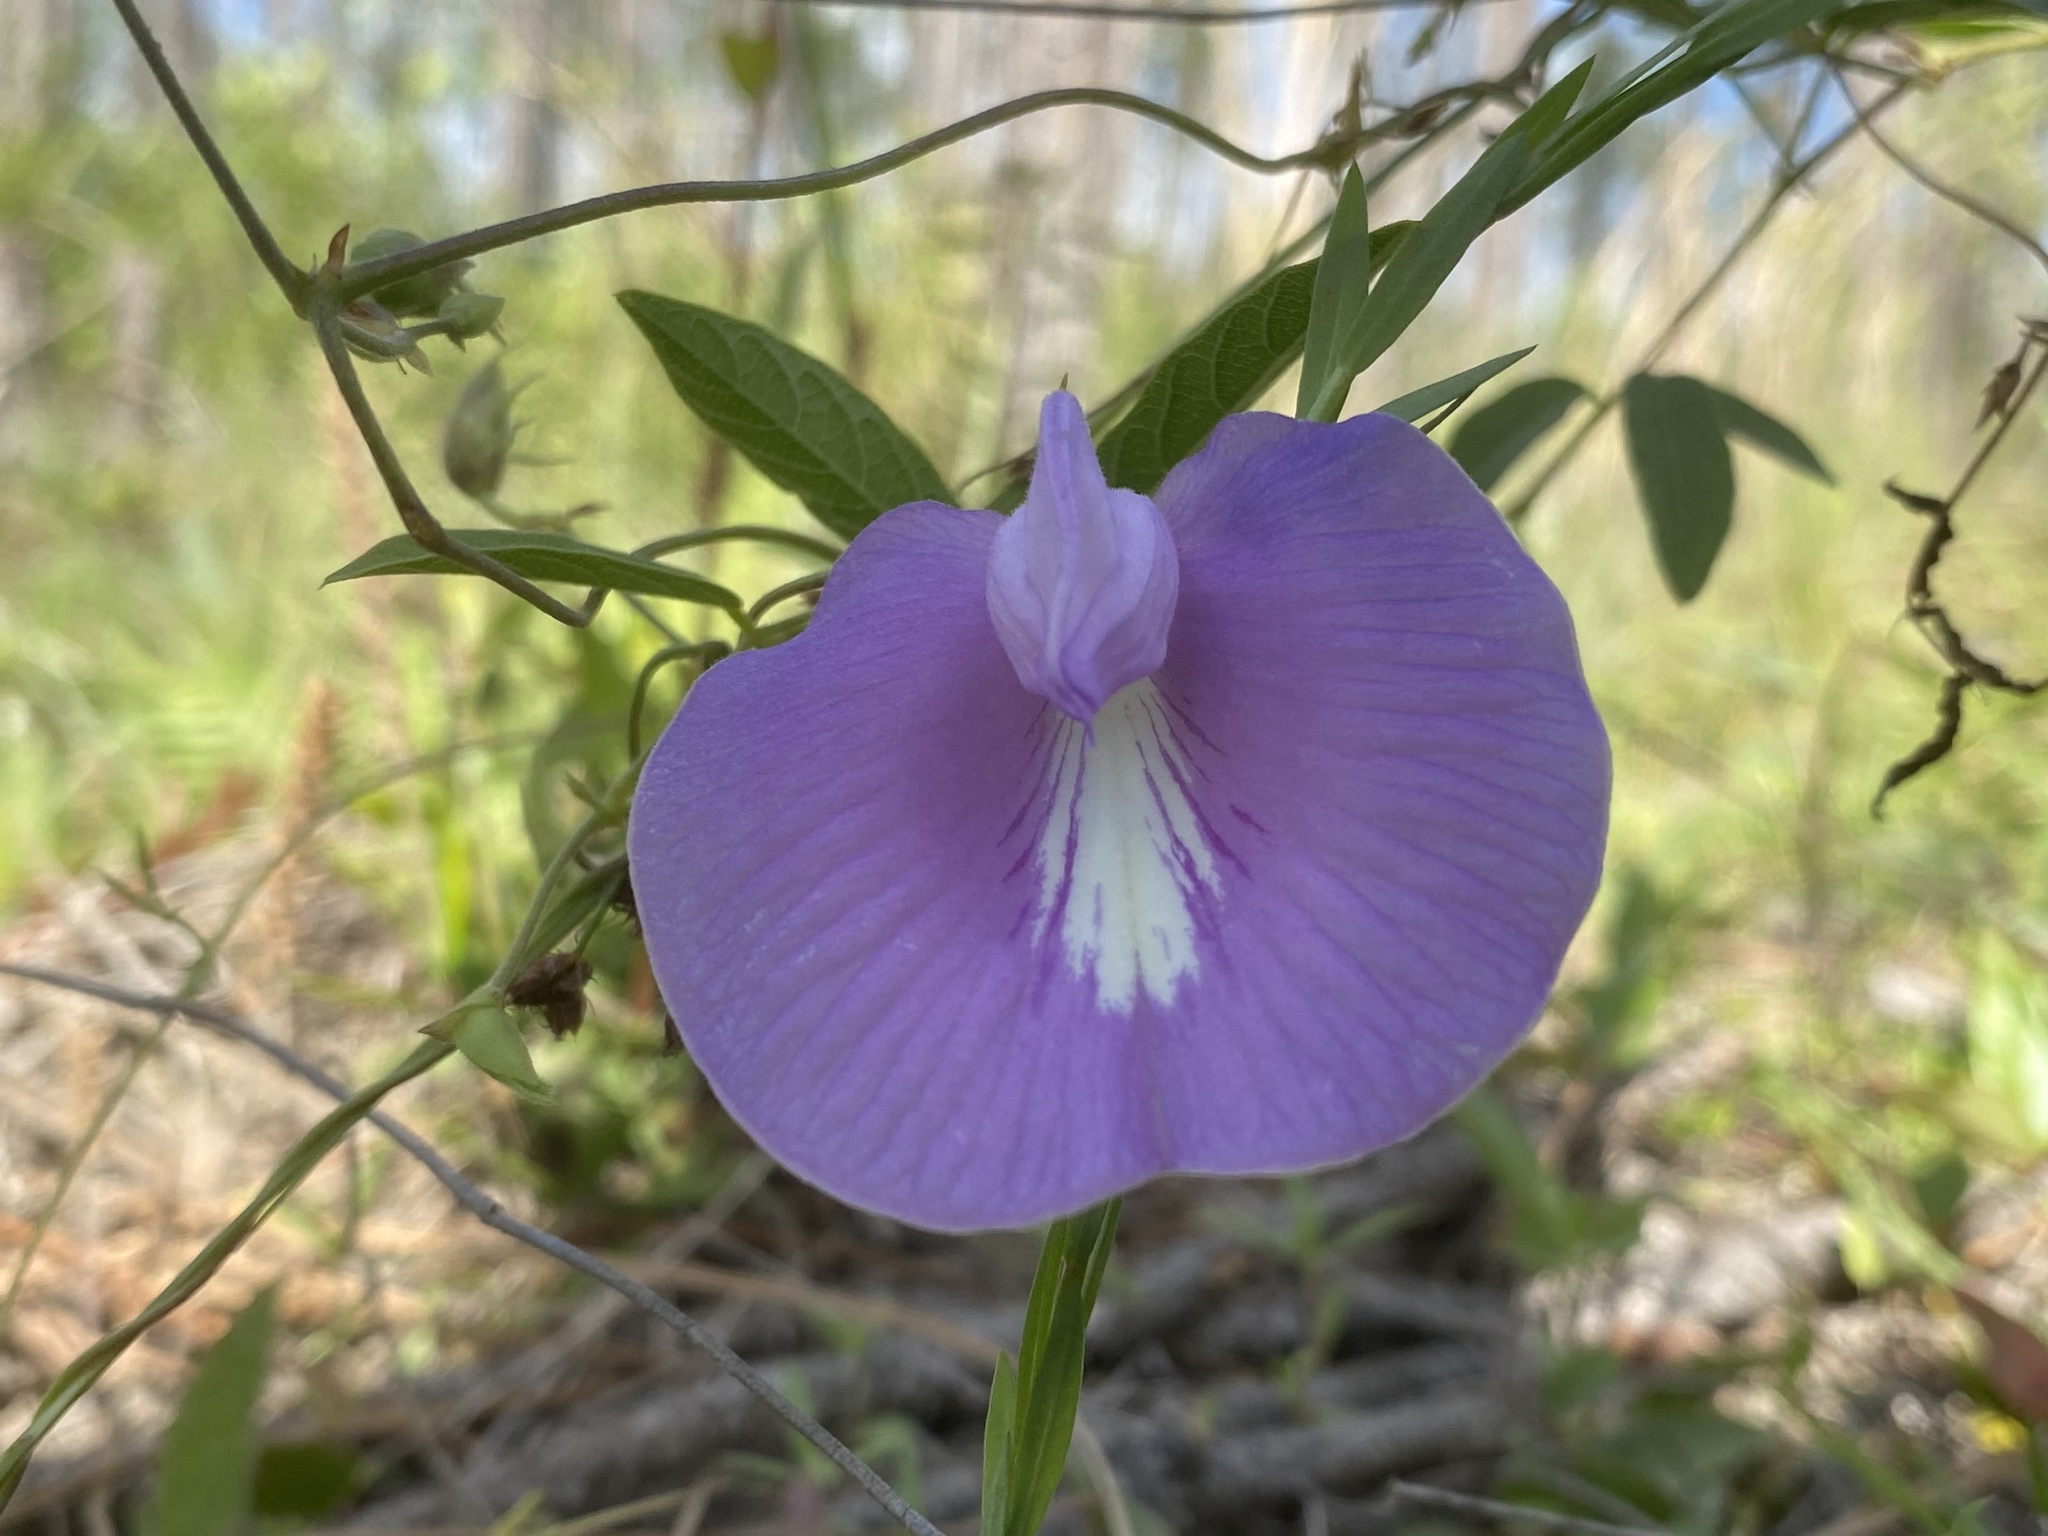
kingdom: Plantae
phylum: Tracheophyta
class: Magnoliopsida
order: Fabales
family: Fabaceae
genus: Centrosema
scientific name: Centrosema virginianum
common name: Butterfly-pea
